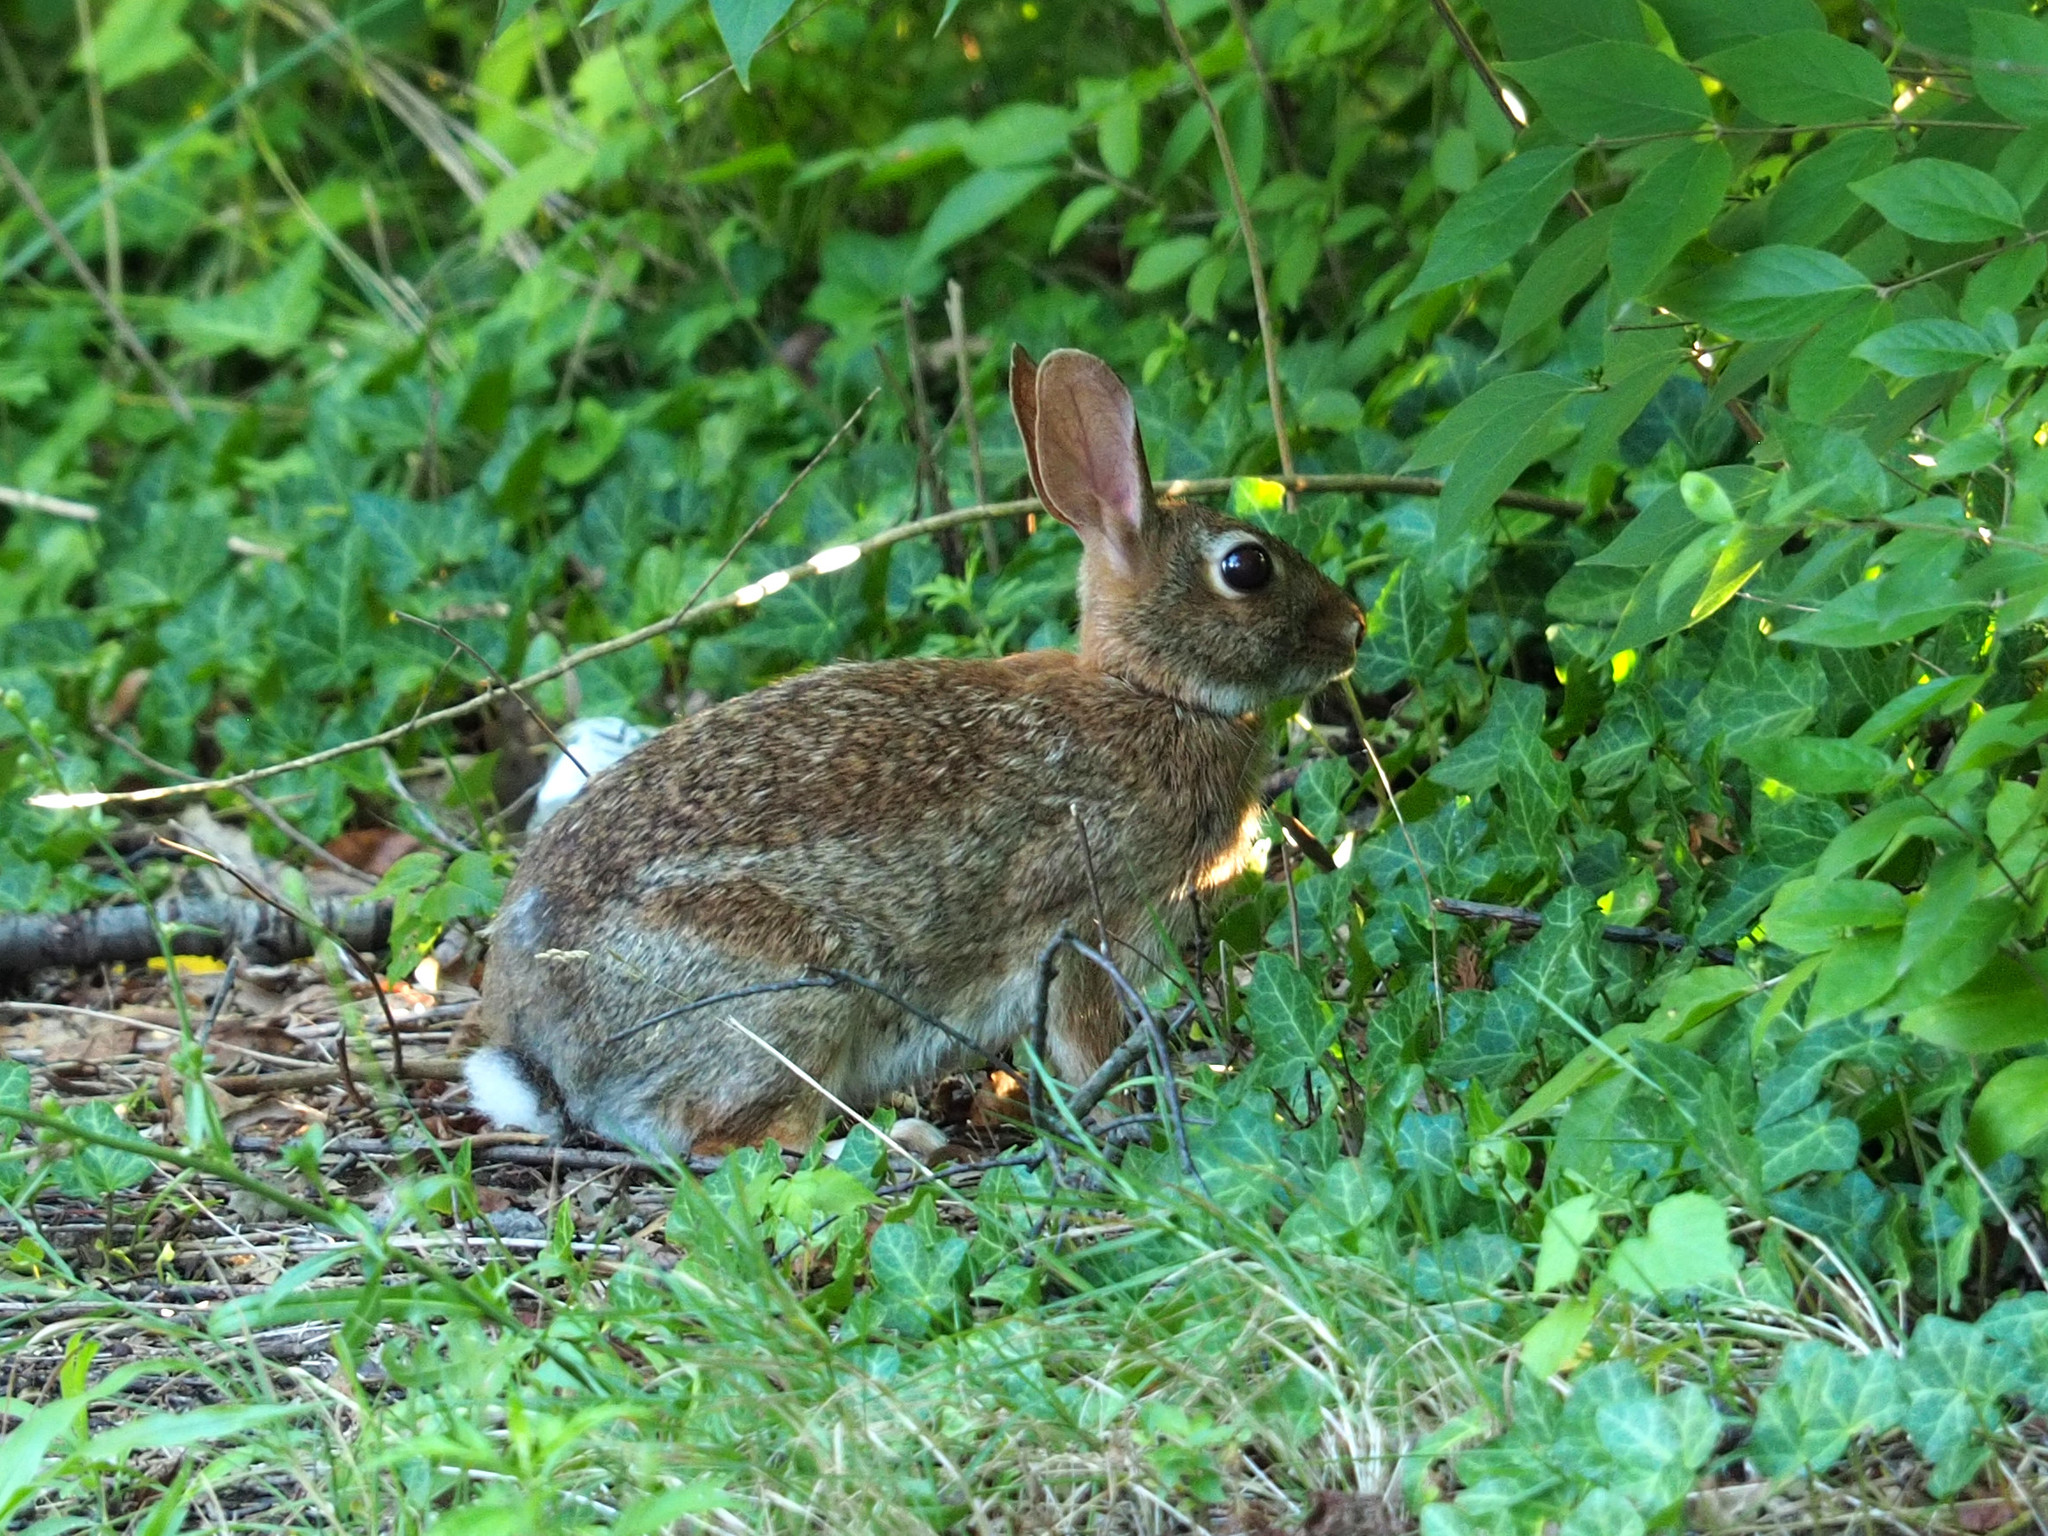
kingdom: Animalia
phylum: Chordata
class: Mammalia
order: Lagomorpha
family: Leporidae
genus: Sylvilagus
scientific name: Sylvilagus floridanus
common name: Eastern cottontail
